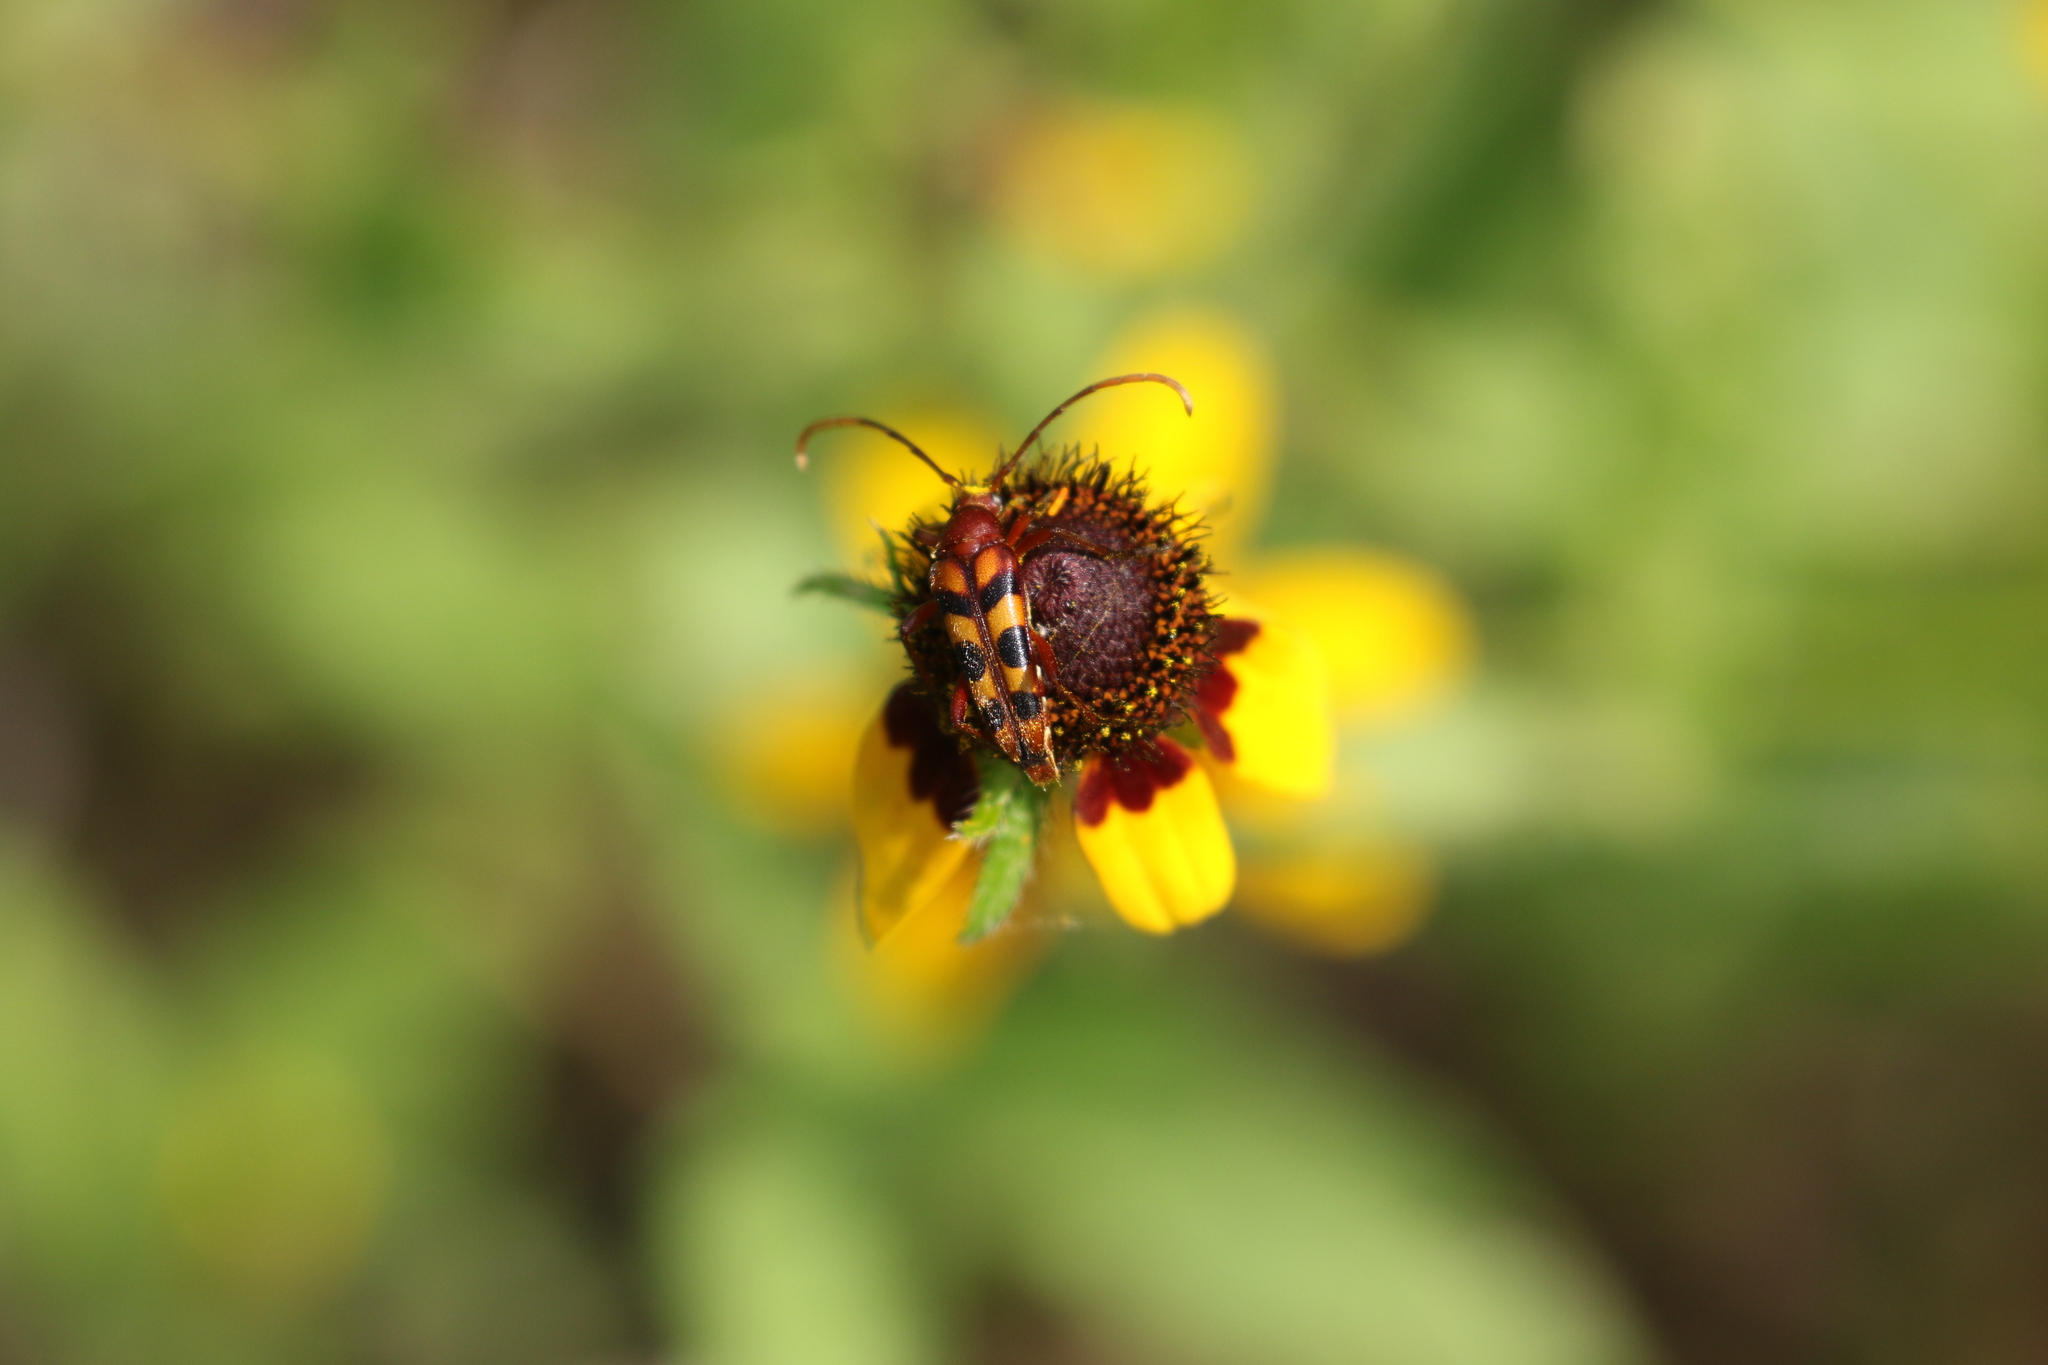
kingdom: Animalia
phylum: Arthropoda
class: Insecta
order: Coleoptera
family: Cerambycidae
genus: Strangalia
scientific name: Strangalia sexnotata
